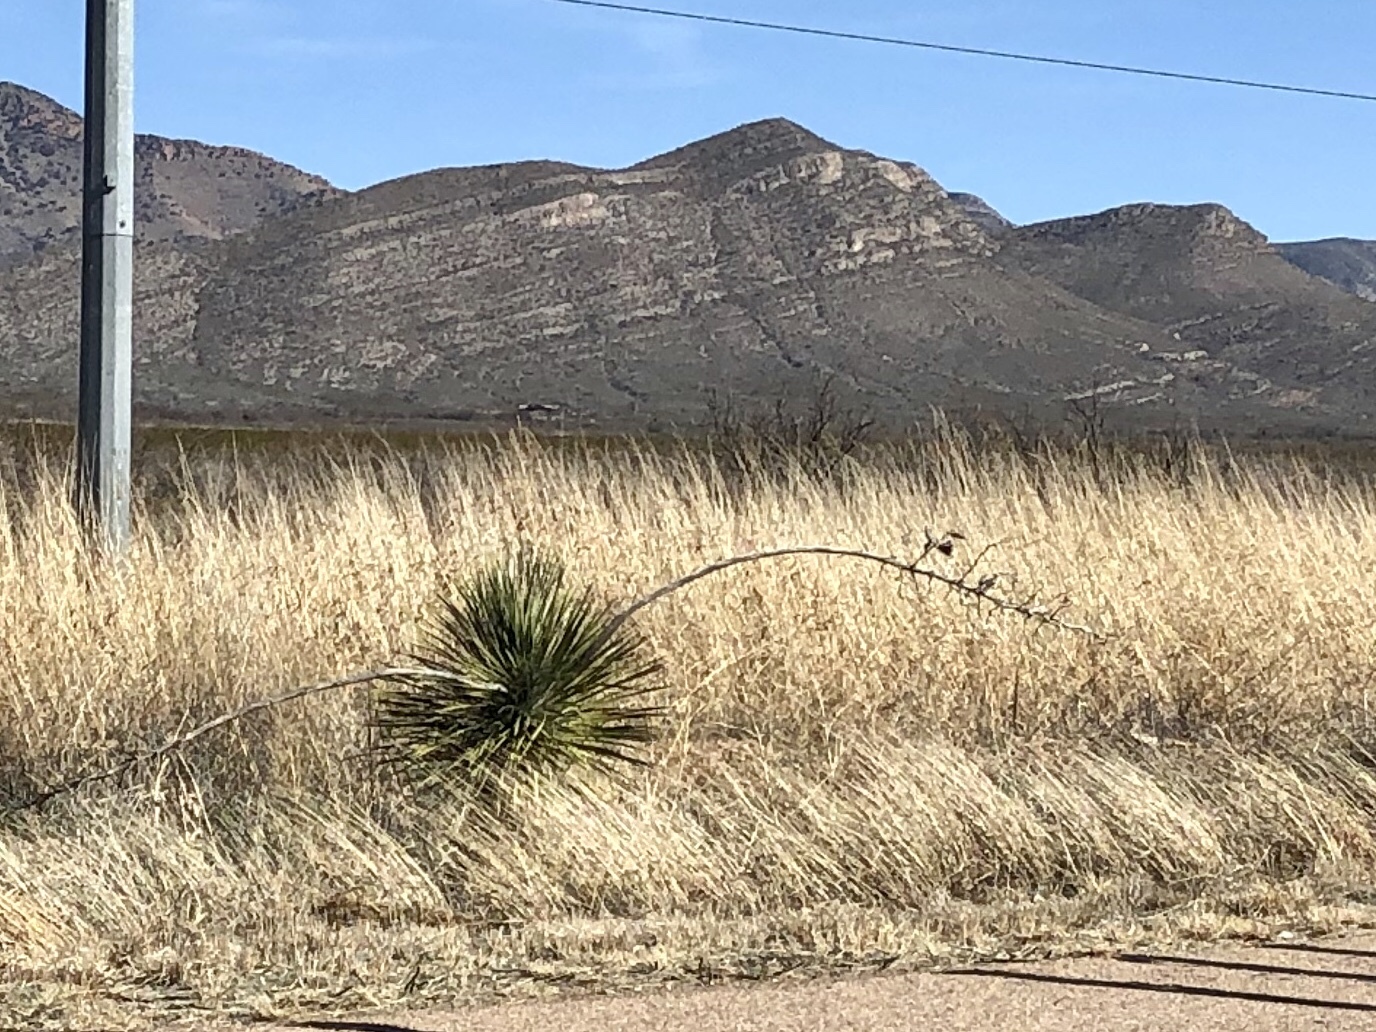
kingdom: Plantae
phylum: Tracheophyta
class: Liliopsida
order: Asparagales
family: Asparagaceae
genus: Yucca
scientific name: Yucca elata
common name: Palmella
